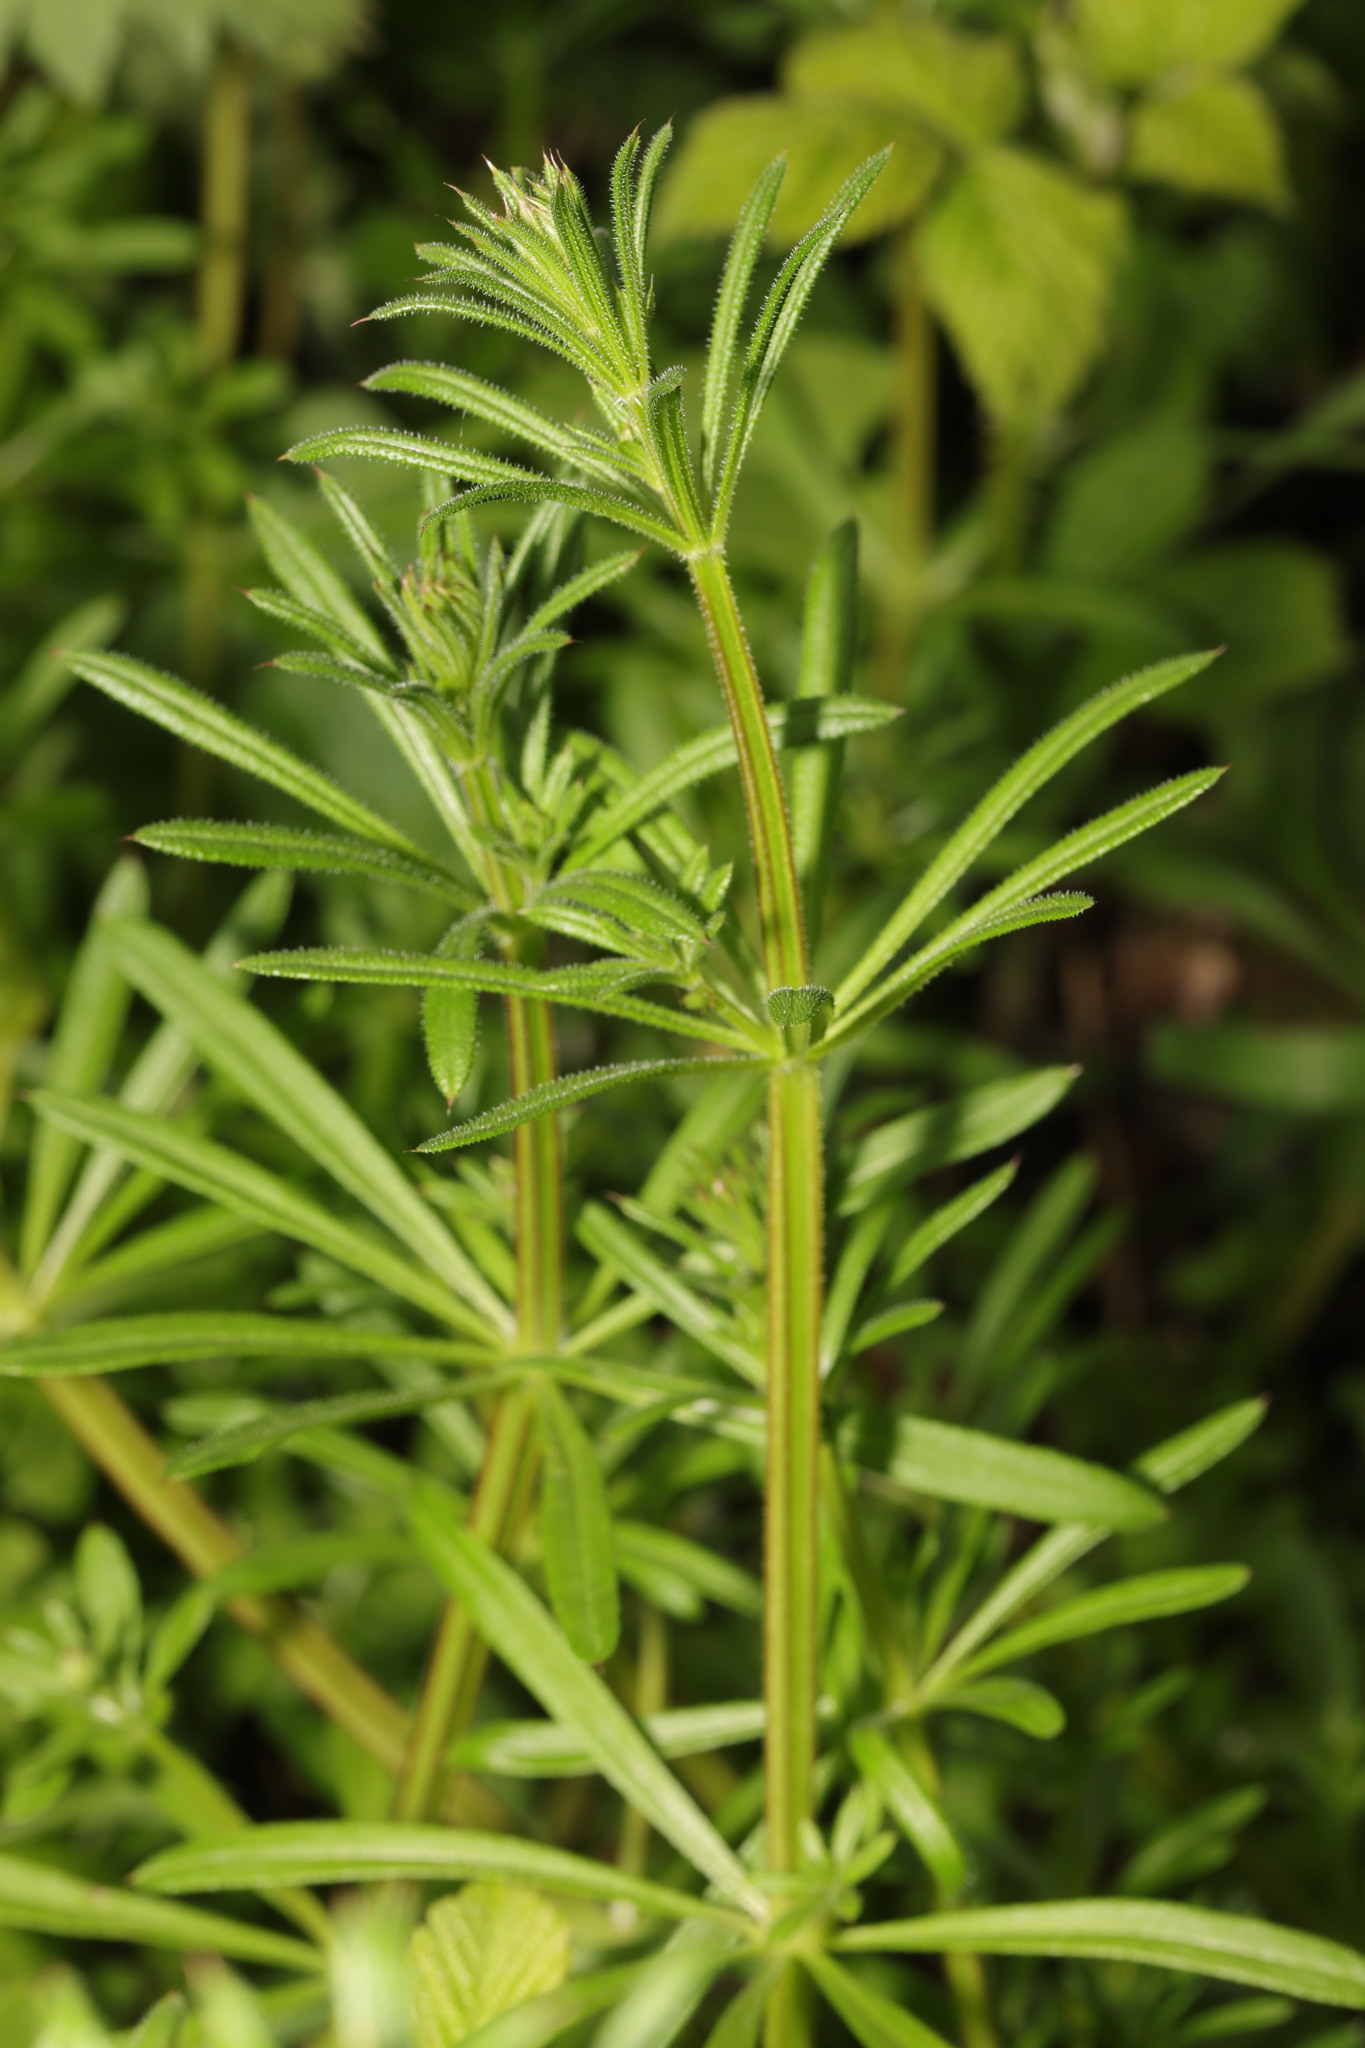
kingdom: Plantae
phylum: Tracheophyta
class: Magnoliopsida
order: Gentianales
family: Rubiaceae
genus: Galium
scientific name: Galium aparine
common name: Cleavers
